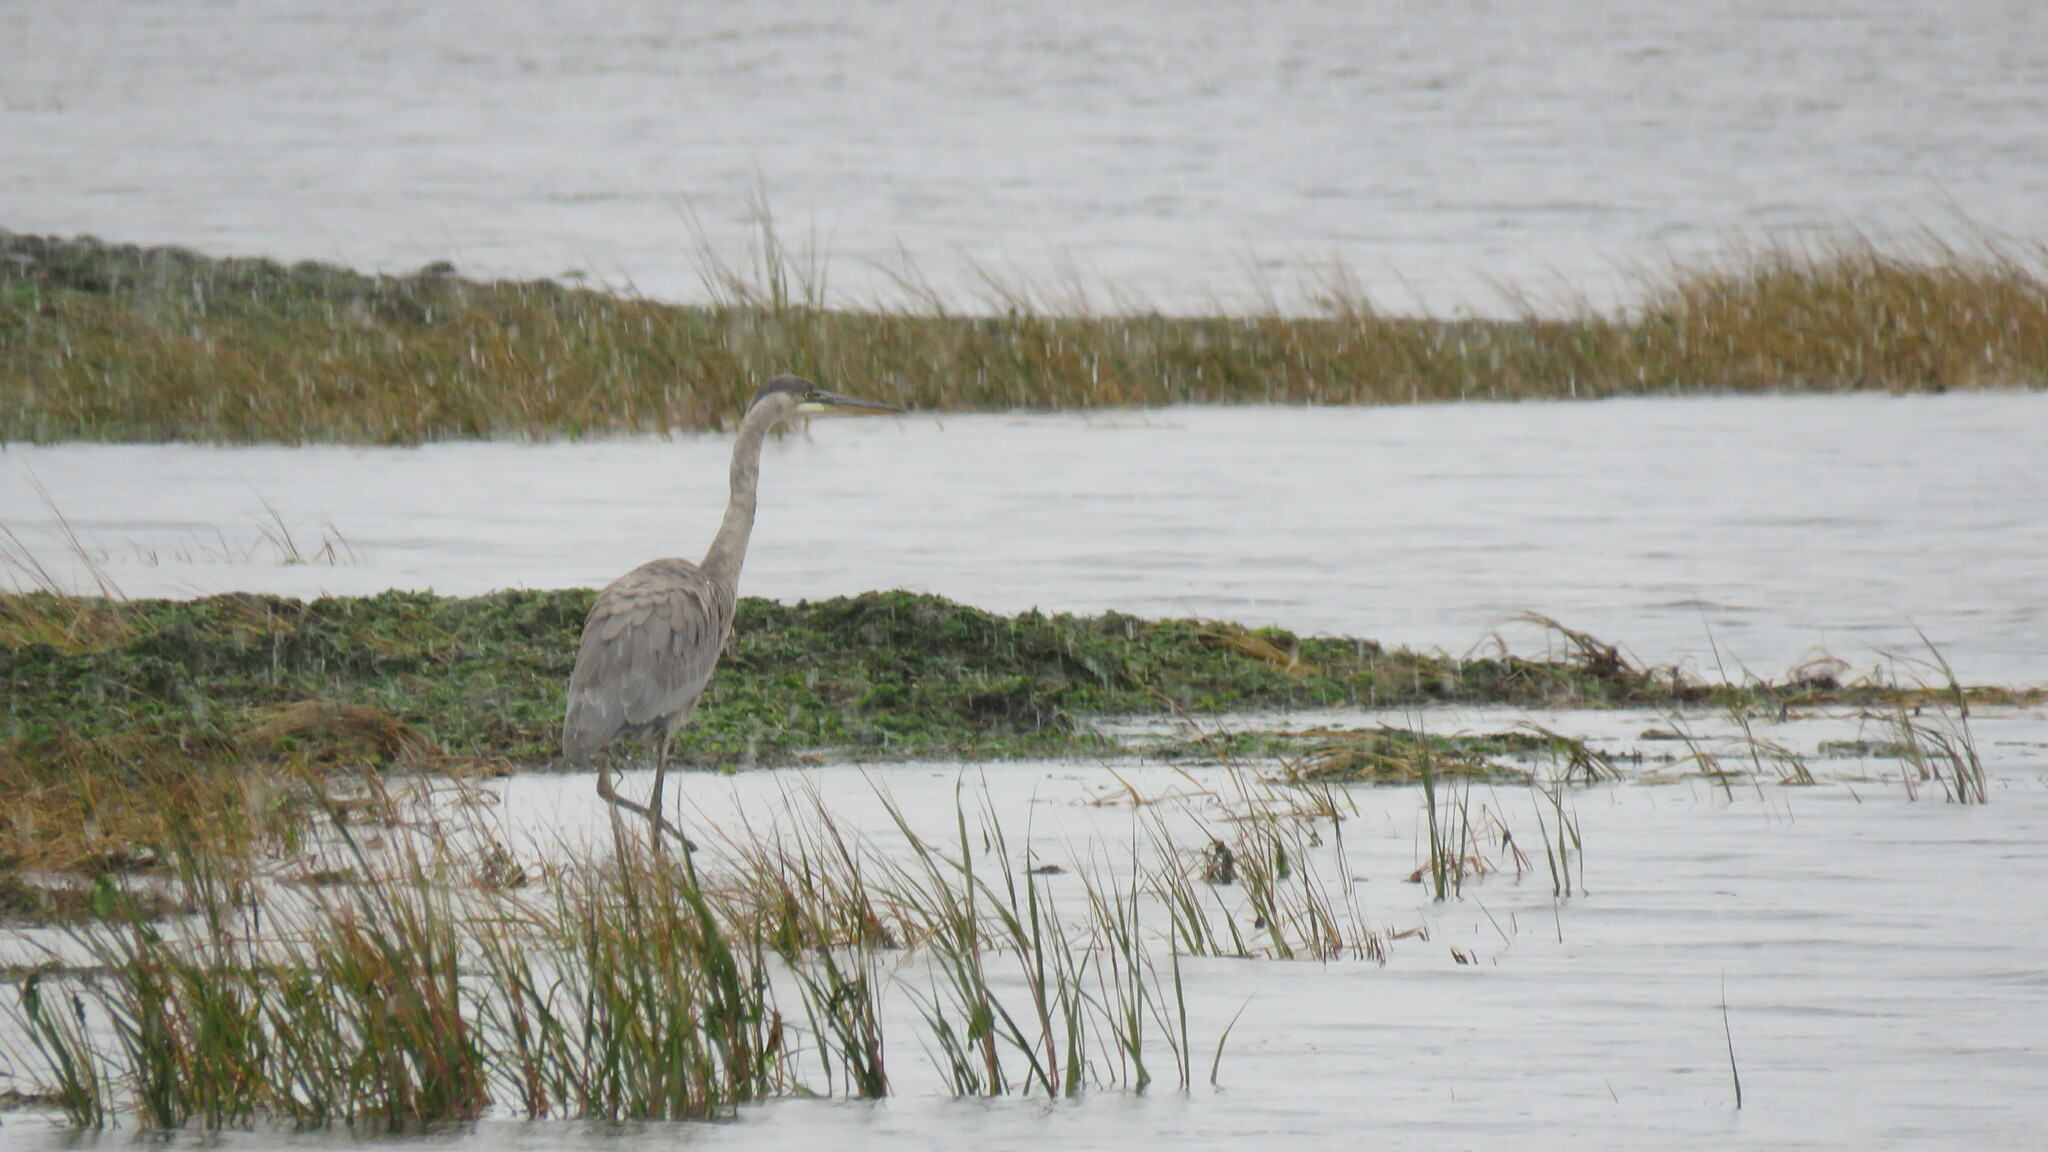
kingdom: Animalia
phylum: Chordata
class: Aves
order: Pelecaniformes
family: Ardeidae
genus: Ardea
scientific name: Ardea herodias
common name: Great blue heron
